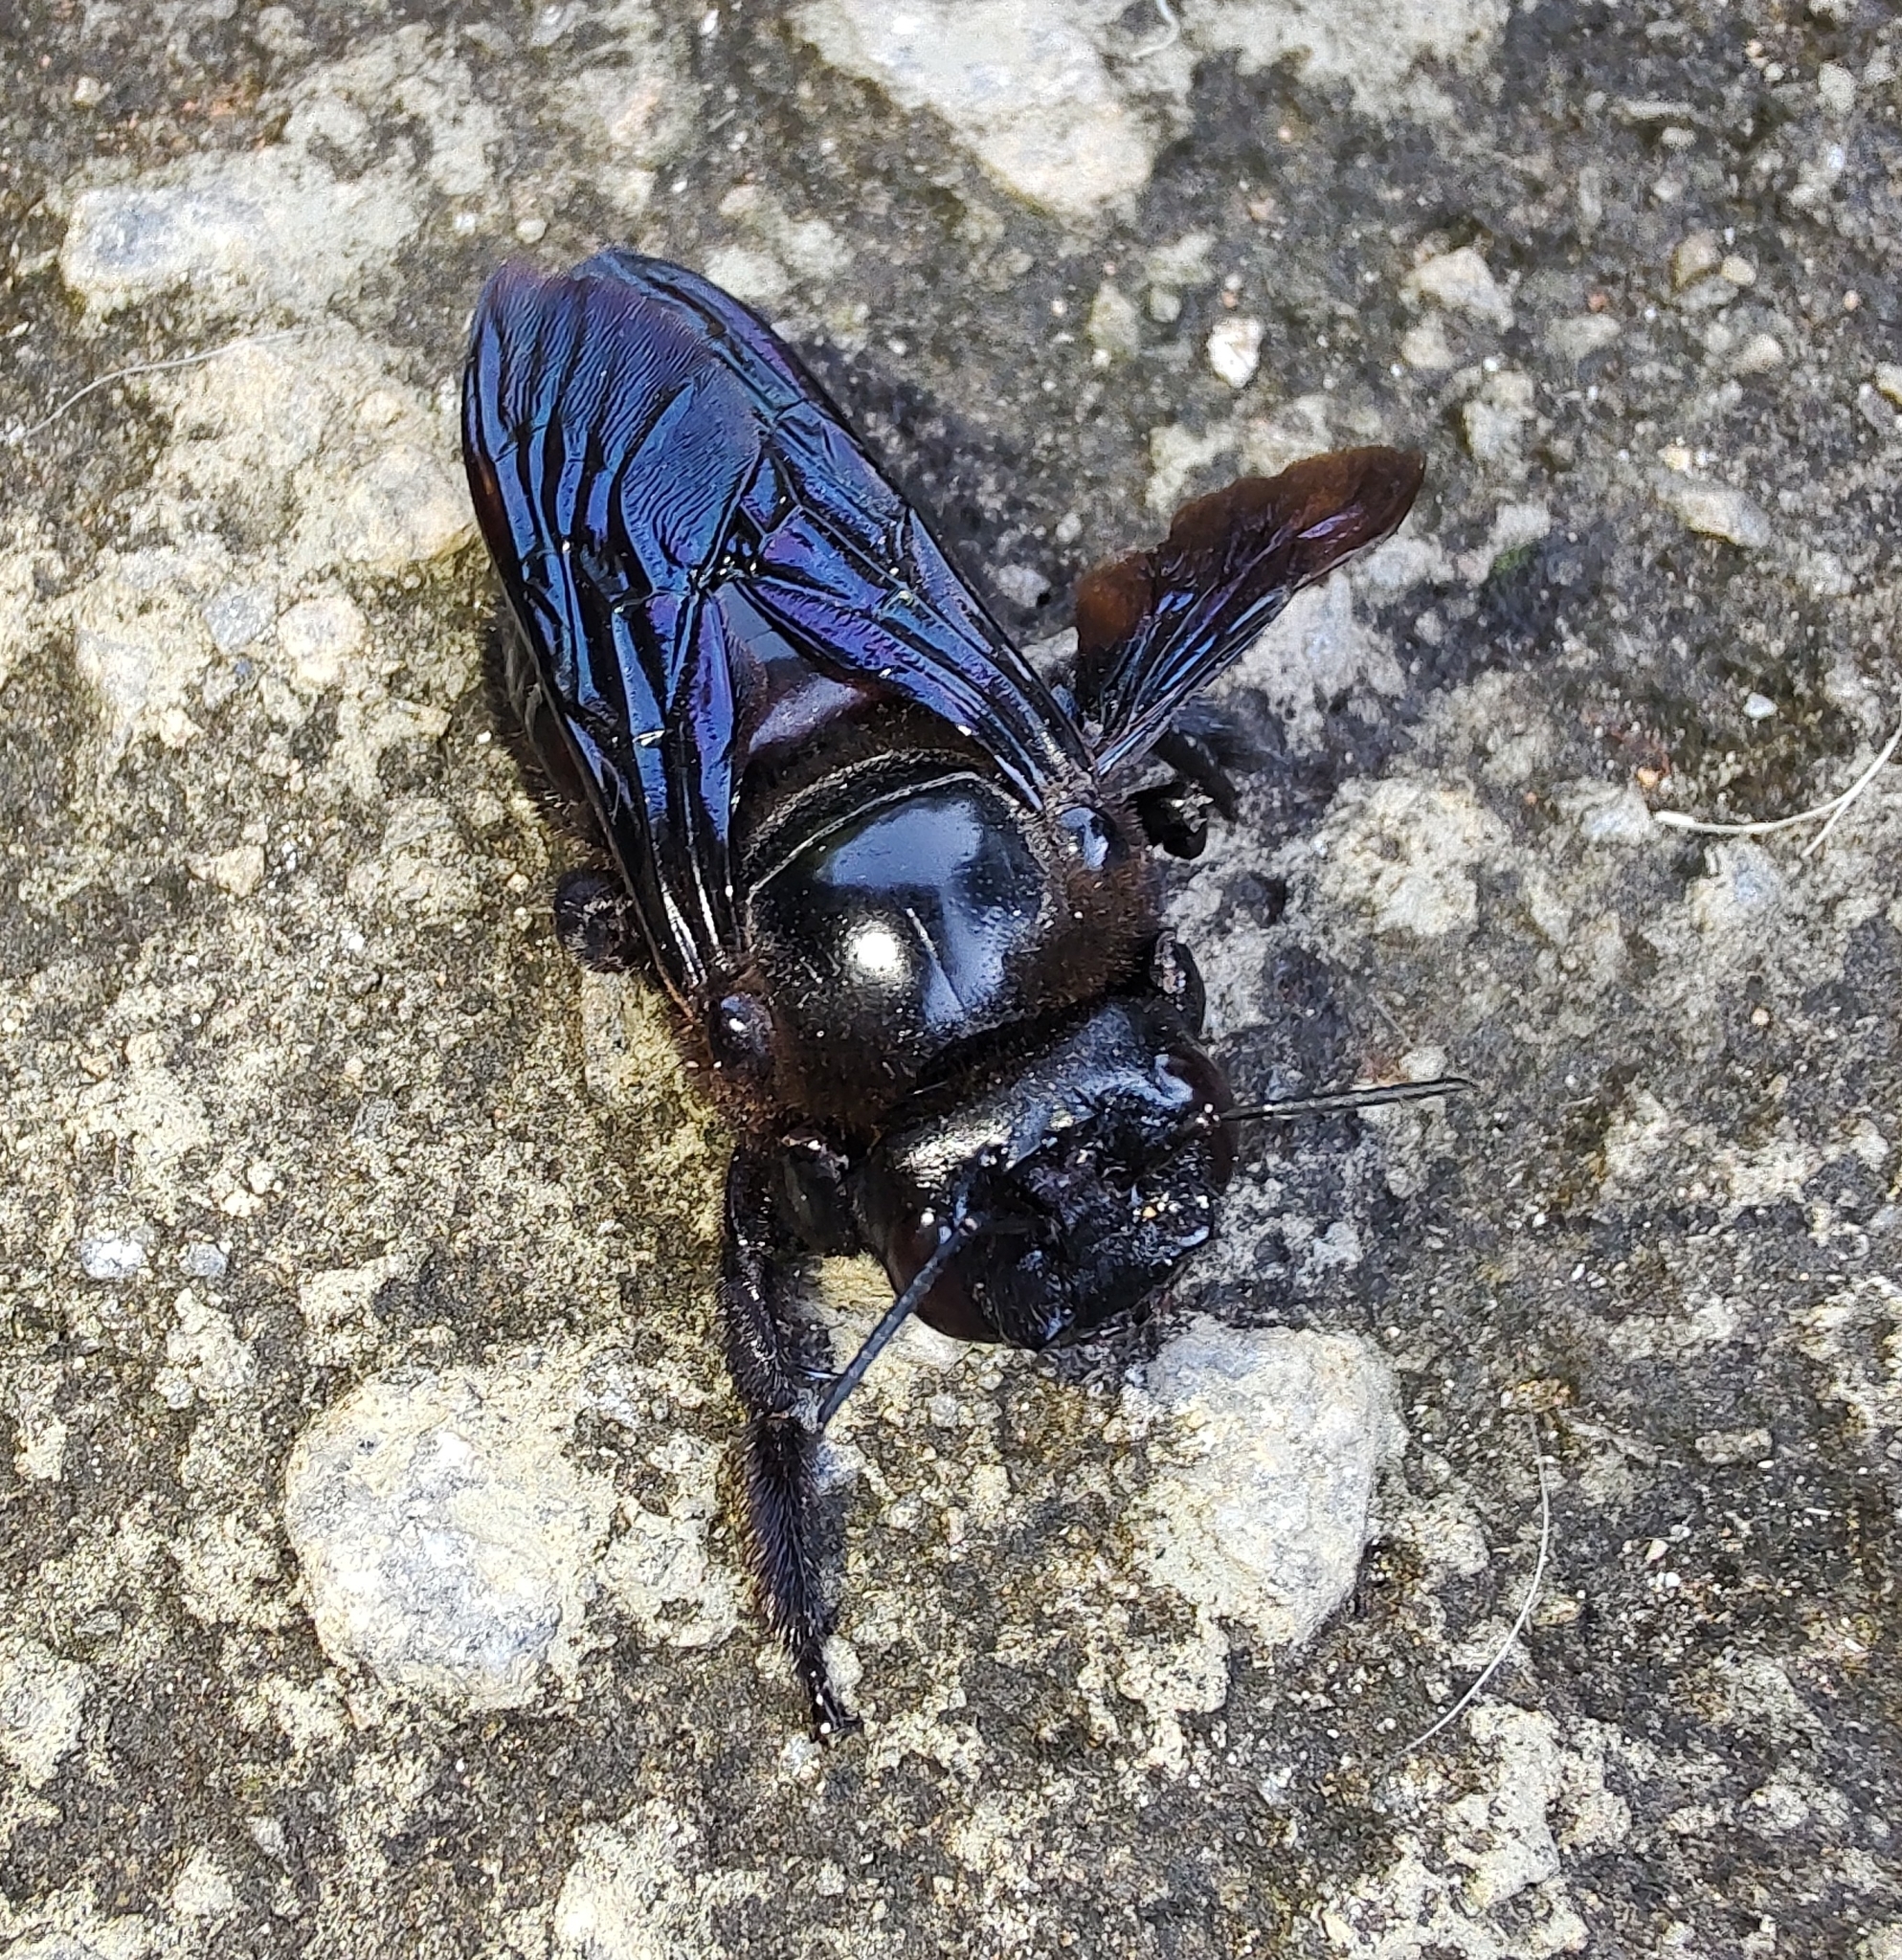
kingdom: Animalia
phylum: Arthropoda
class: Insecta
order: Hymenoptera
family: Apidae
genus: Xylocopa
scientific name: Xylocopa frontalis
